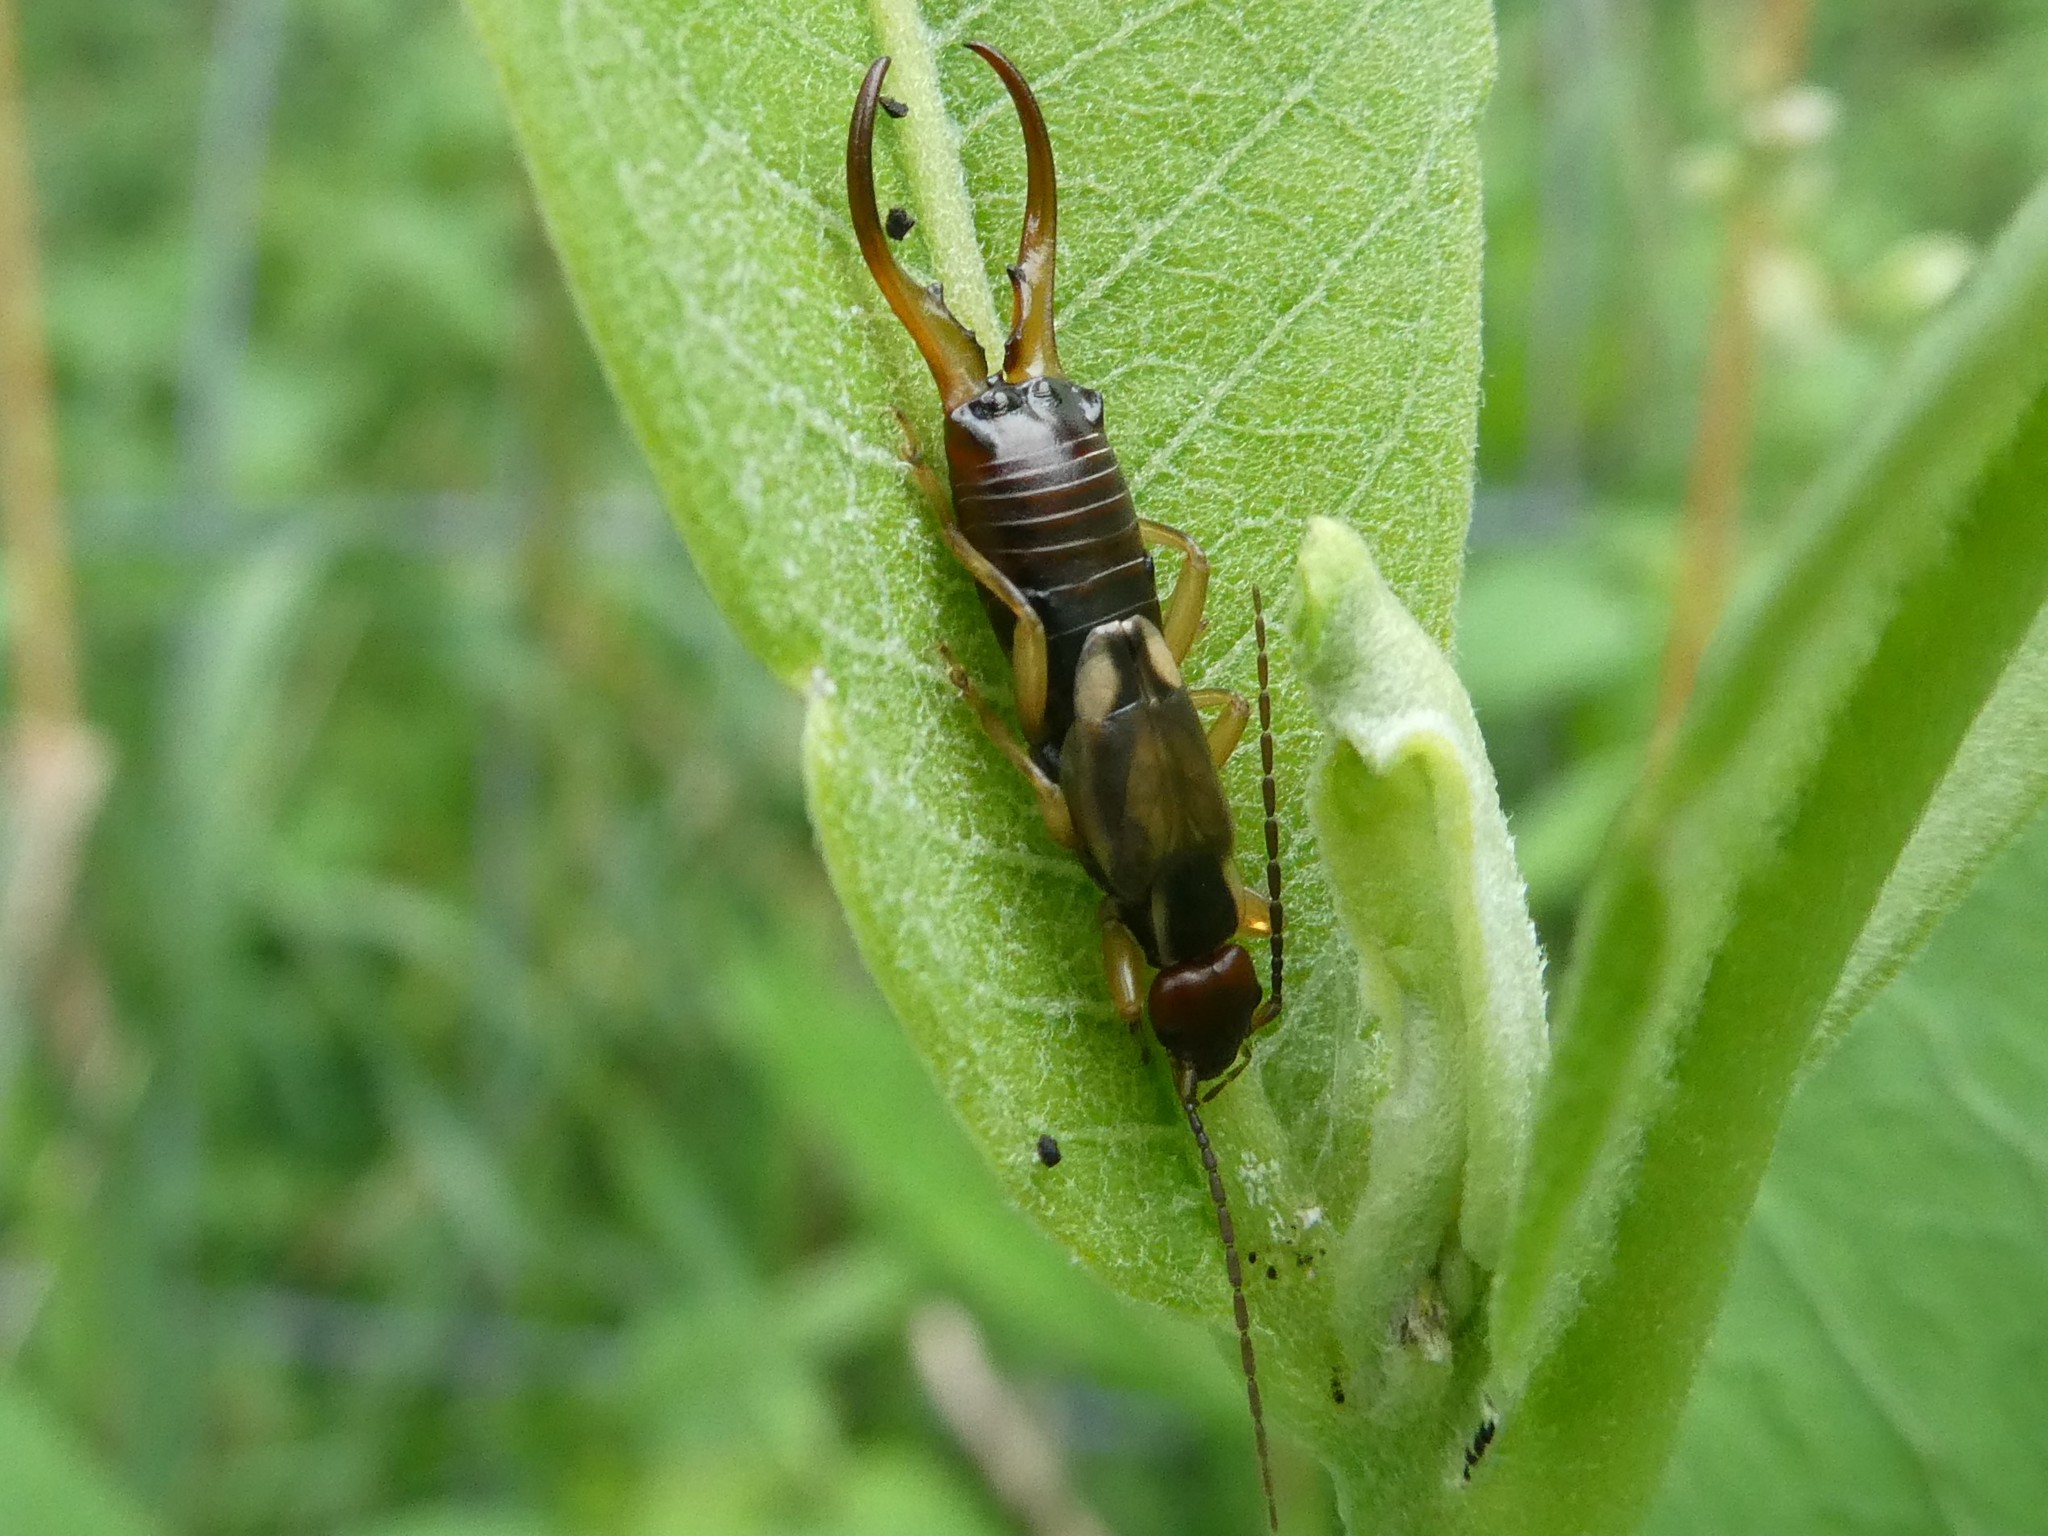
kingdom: Animalia
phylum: Arthropoda
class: Insecta
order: Dermaptera
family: Forficulidae
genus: Forficula
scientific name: Forficula
